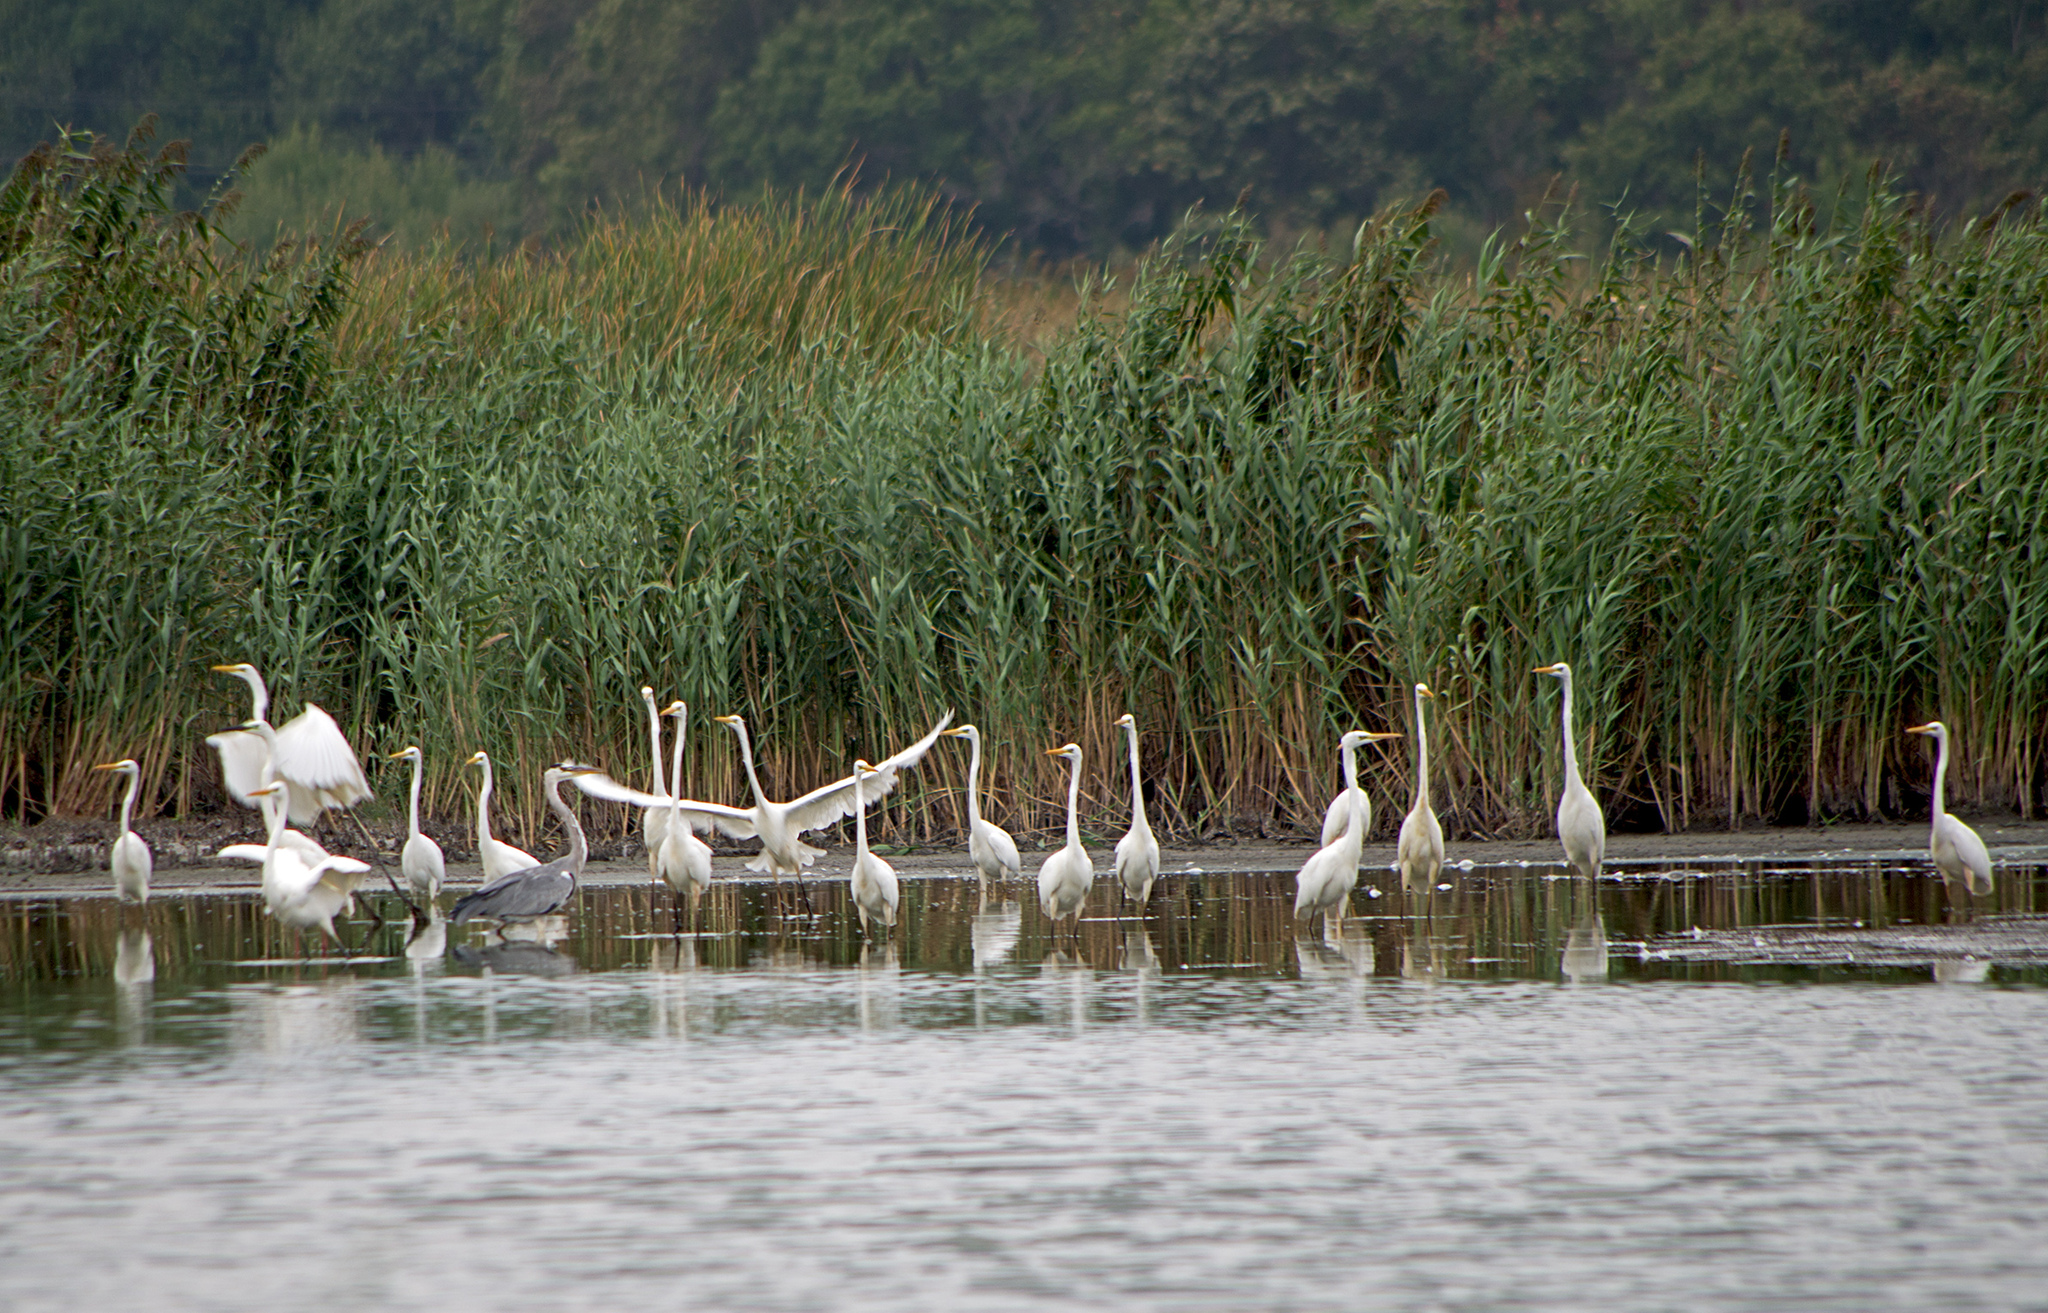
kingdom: Animalia
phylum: Chordata
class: Aves
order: Pelecaniformes
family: Ardeidae
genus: Ardea
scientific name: Ardea alba
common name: Great egret
